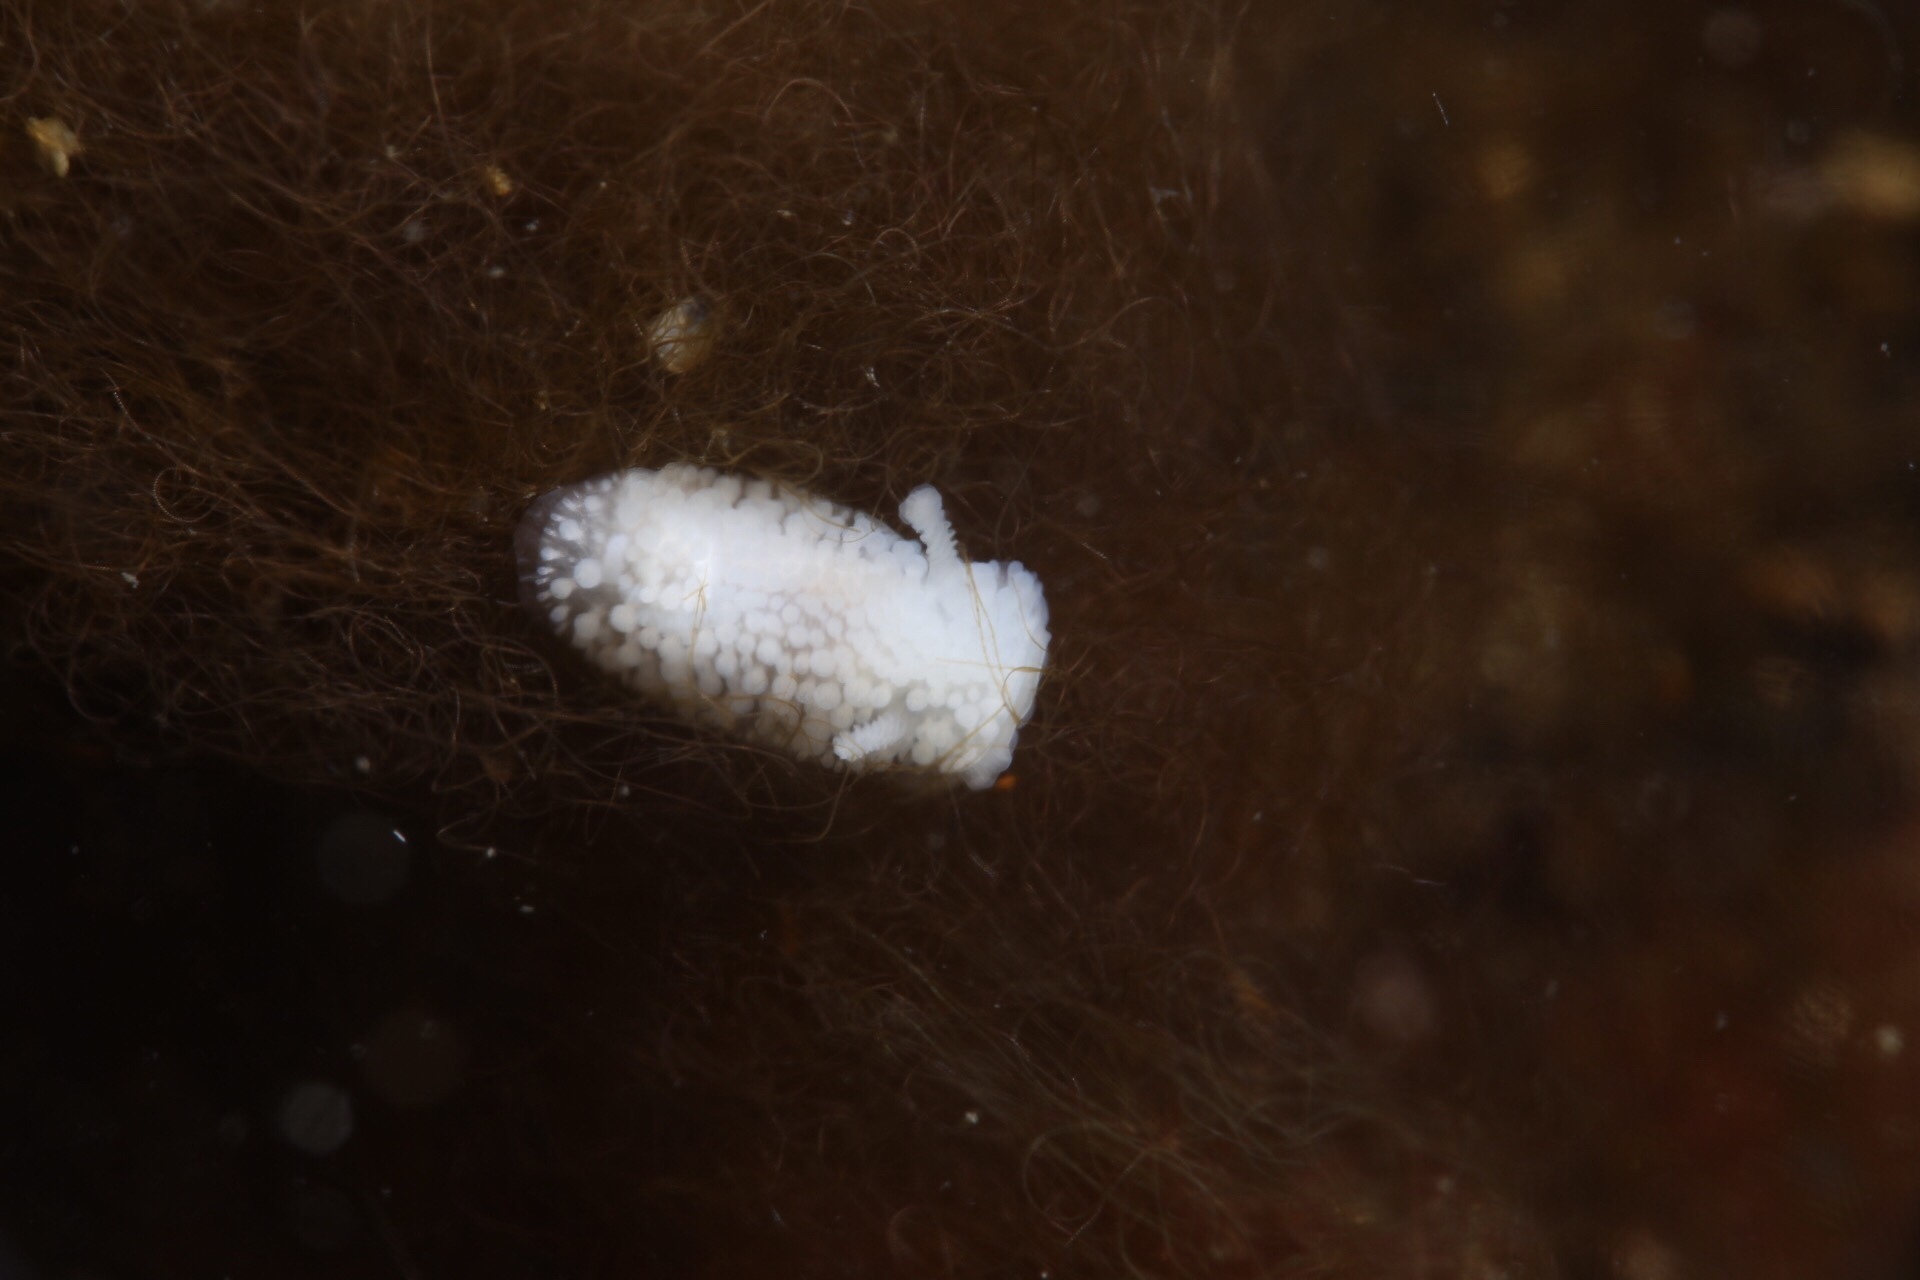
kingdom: Animalia
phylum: Mollusca
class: Gastropoda
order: Nudibranchia
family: Onchidorididae
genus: Onchidoris
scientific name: Onchidoris muricata
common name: Rough doris
